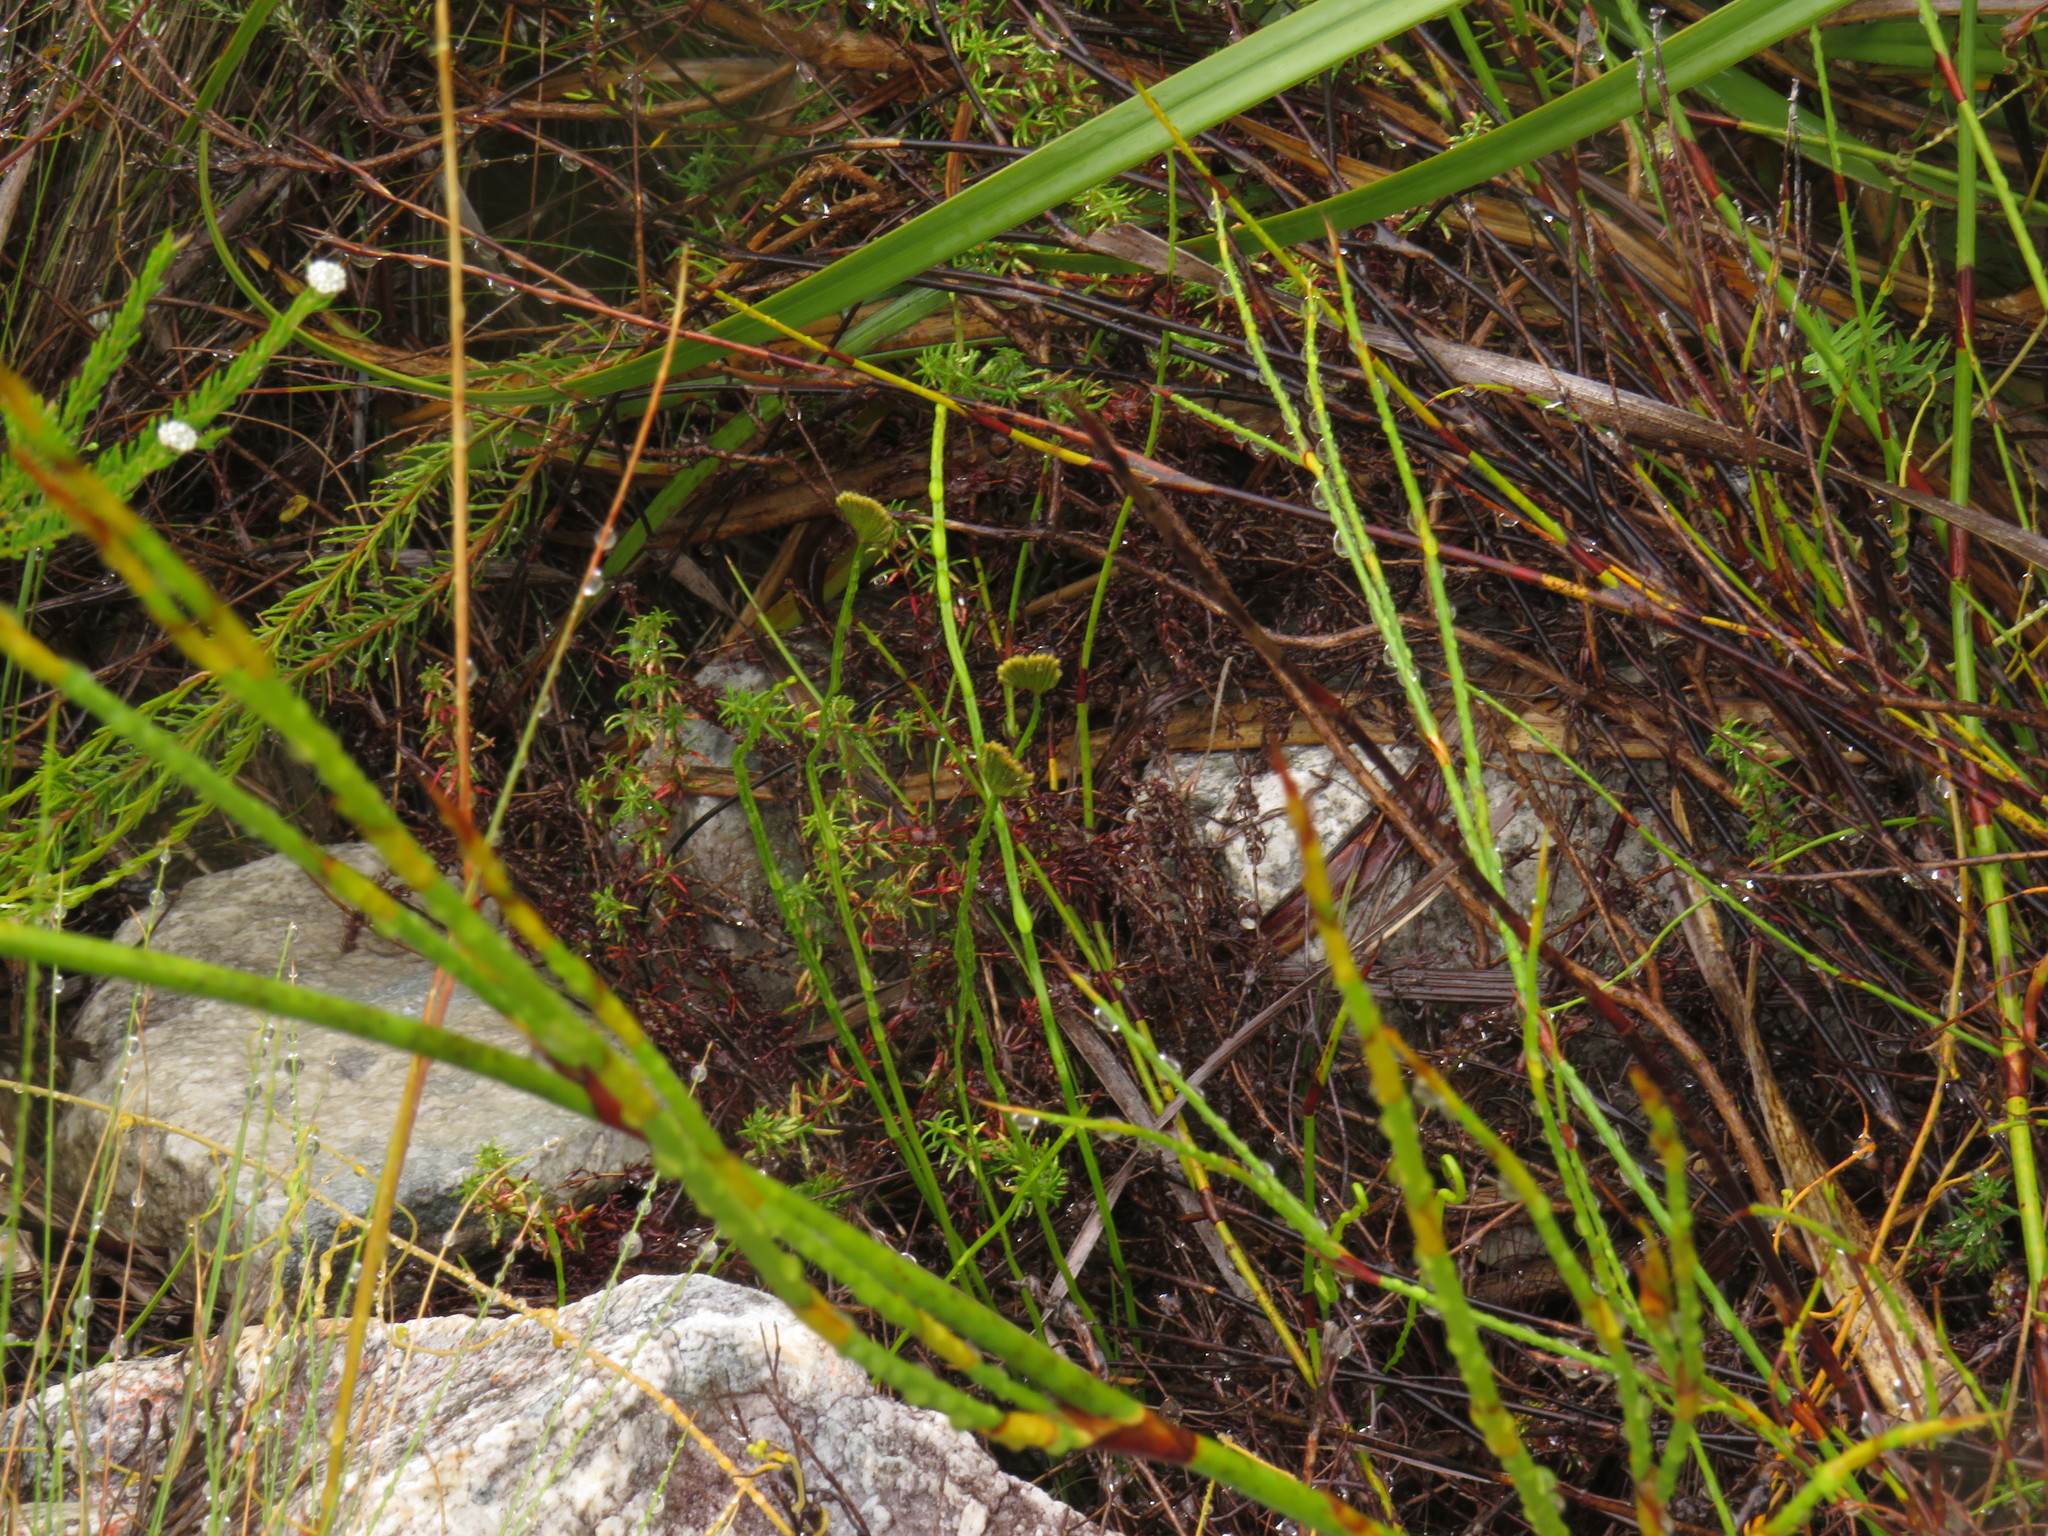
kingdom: Plantae
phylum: Tracheophyta
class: Polypodiopsida
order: Schizaeales
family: Schizaeaceae
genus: Schizaea
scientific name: Schizaea pectinata
